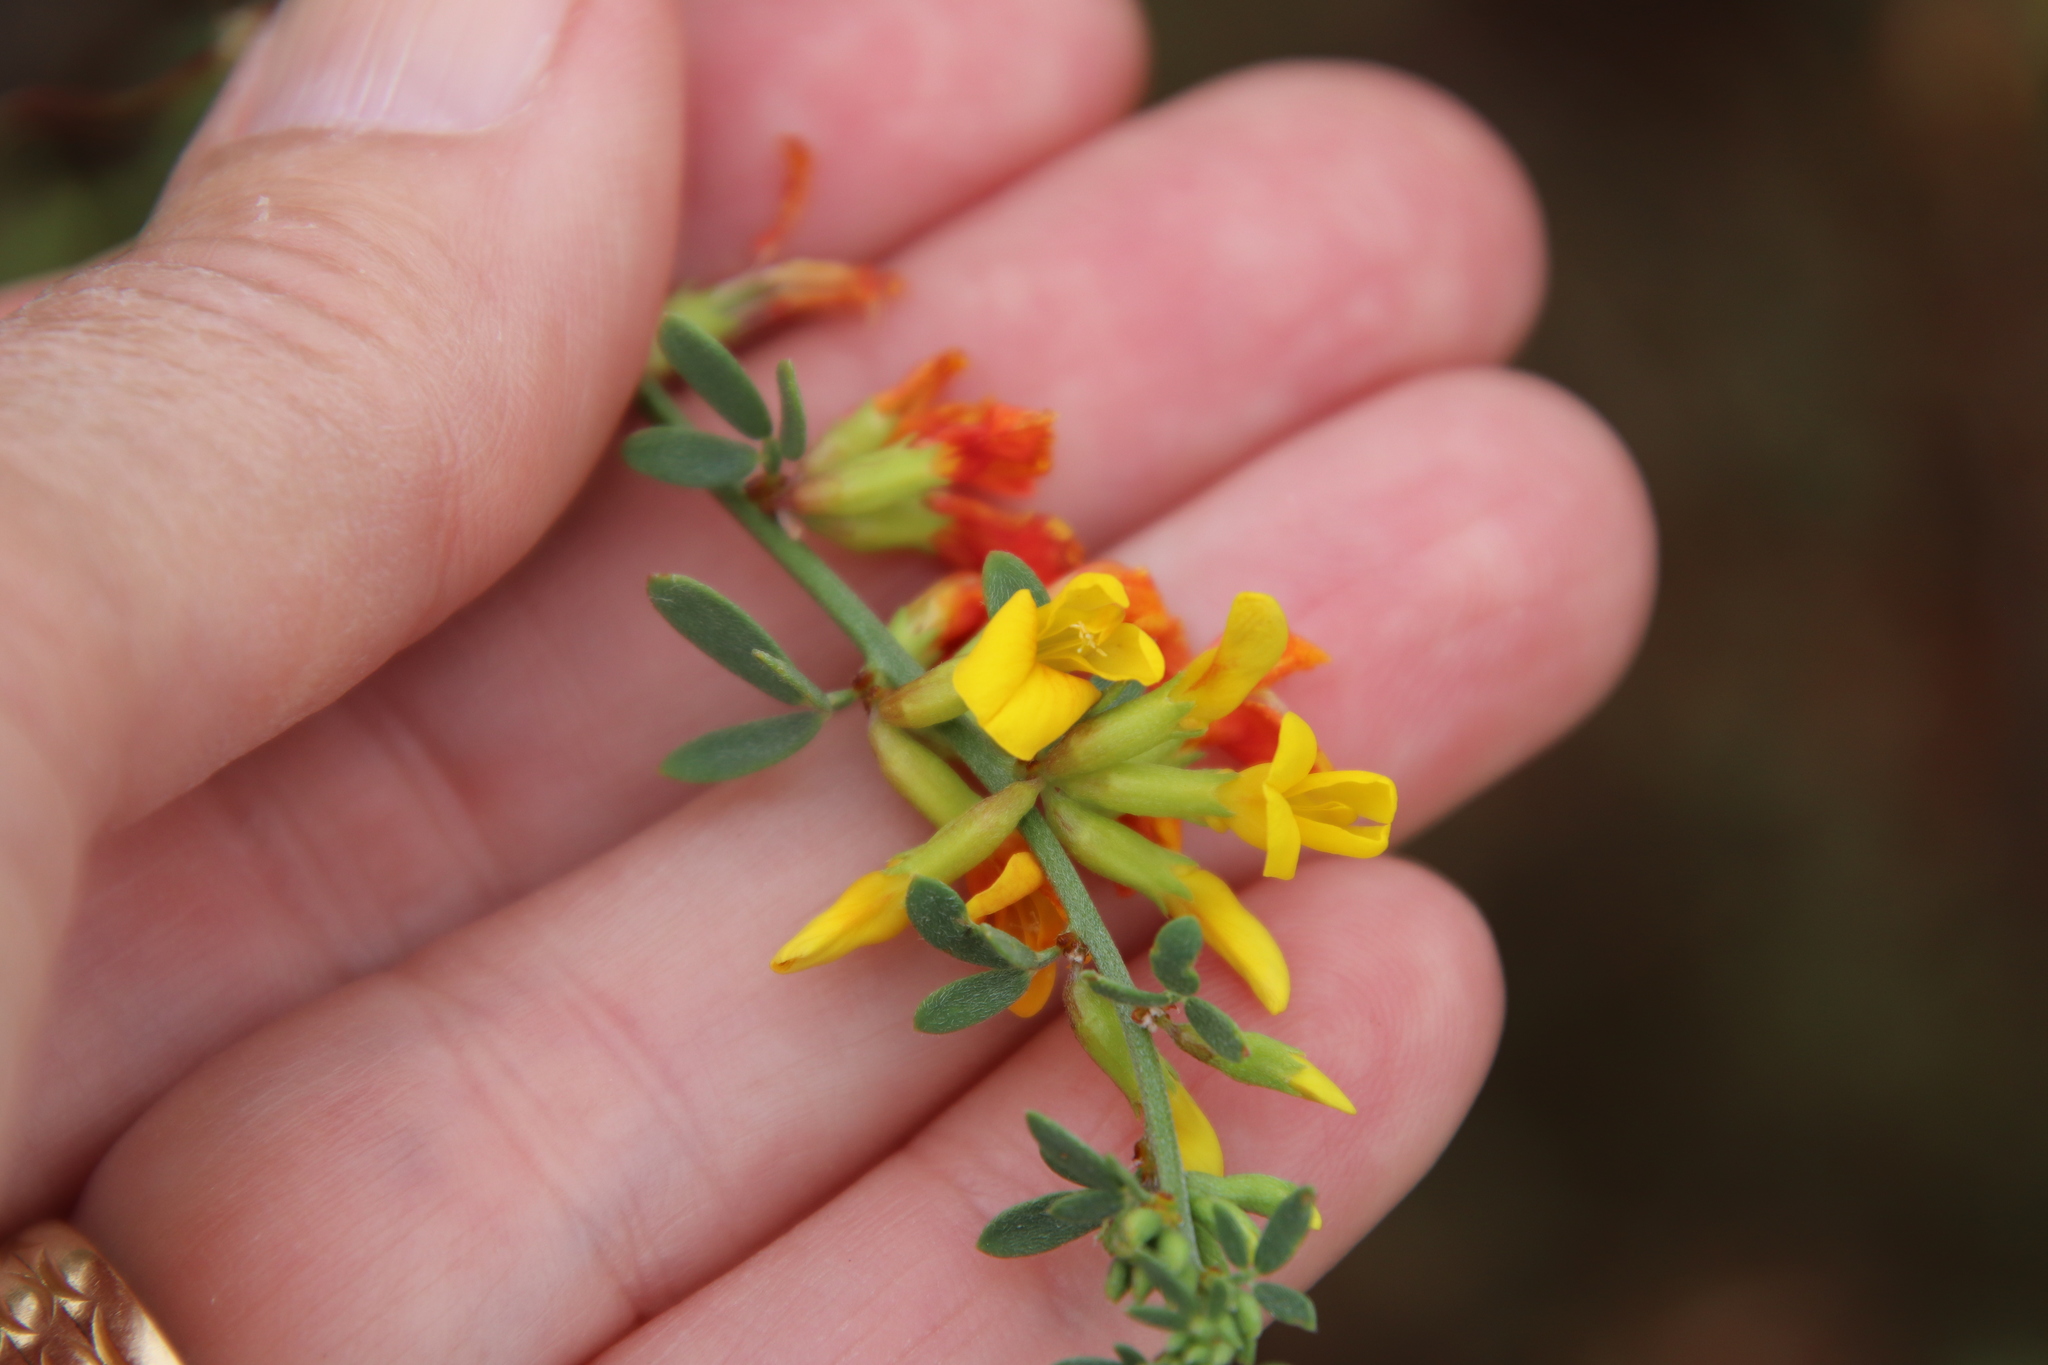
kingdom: Plantae
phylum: Tracheophyta
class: Magnoliopsida
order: Fabales
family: Fabaceae
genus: Acmispon
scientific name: Acmispon glaber
